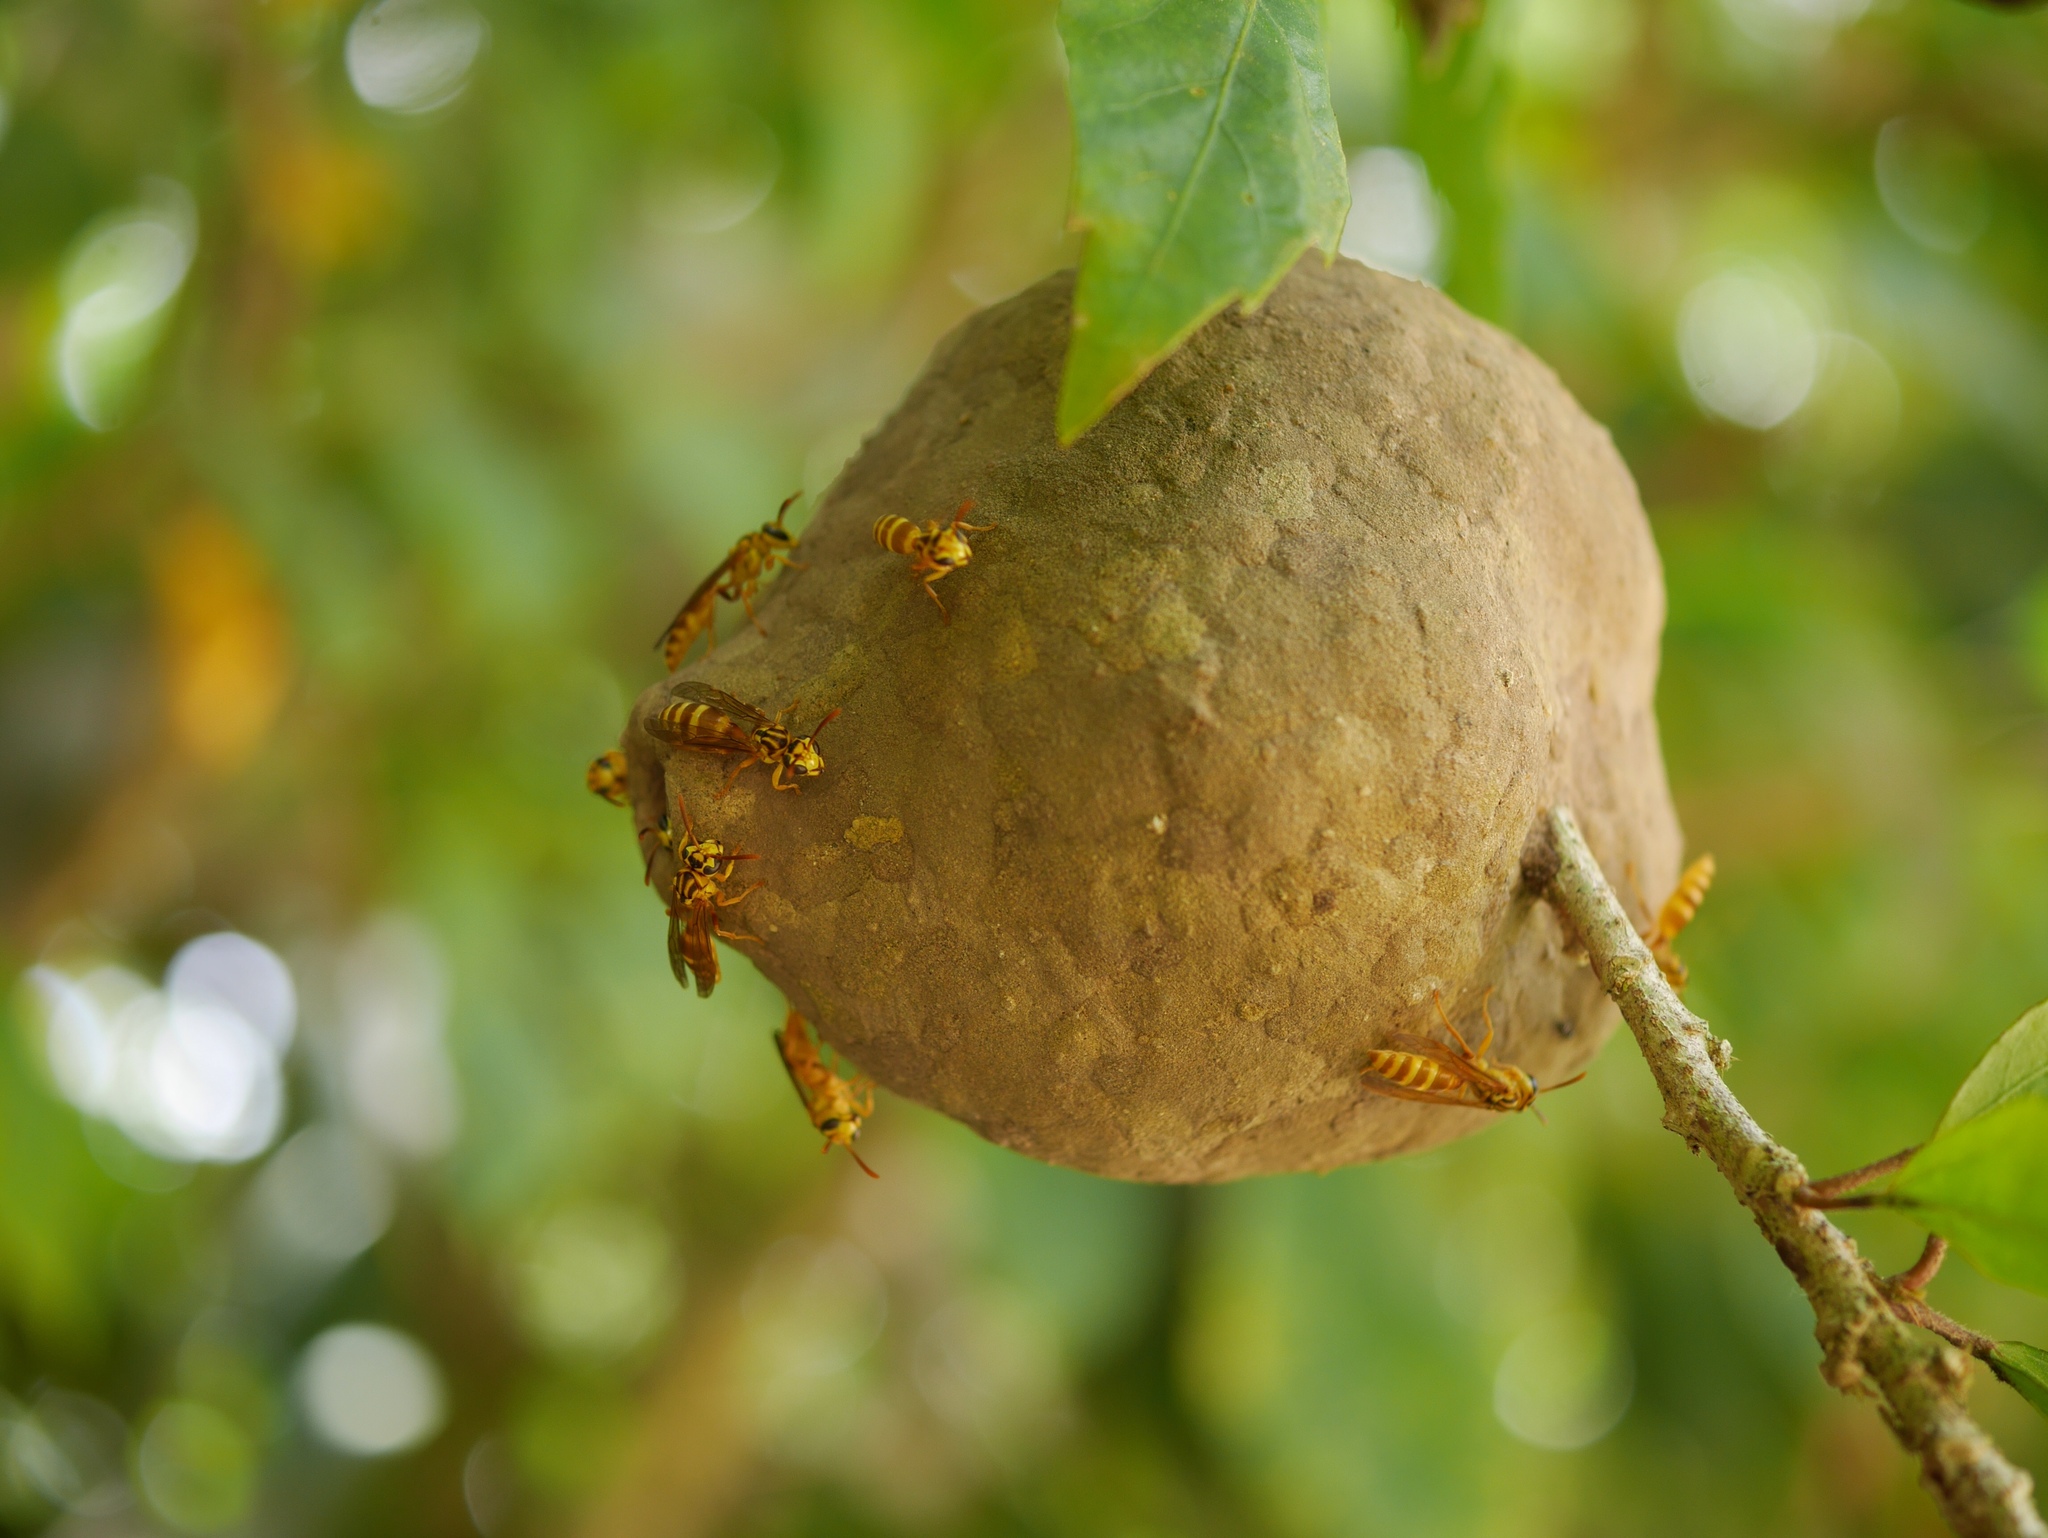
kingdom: Animalia
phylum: Arthropoda
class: Insecta
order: Hymenoptera
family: Eumenidae
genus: Polybia
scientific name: Polybia emaciata
